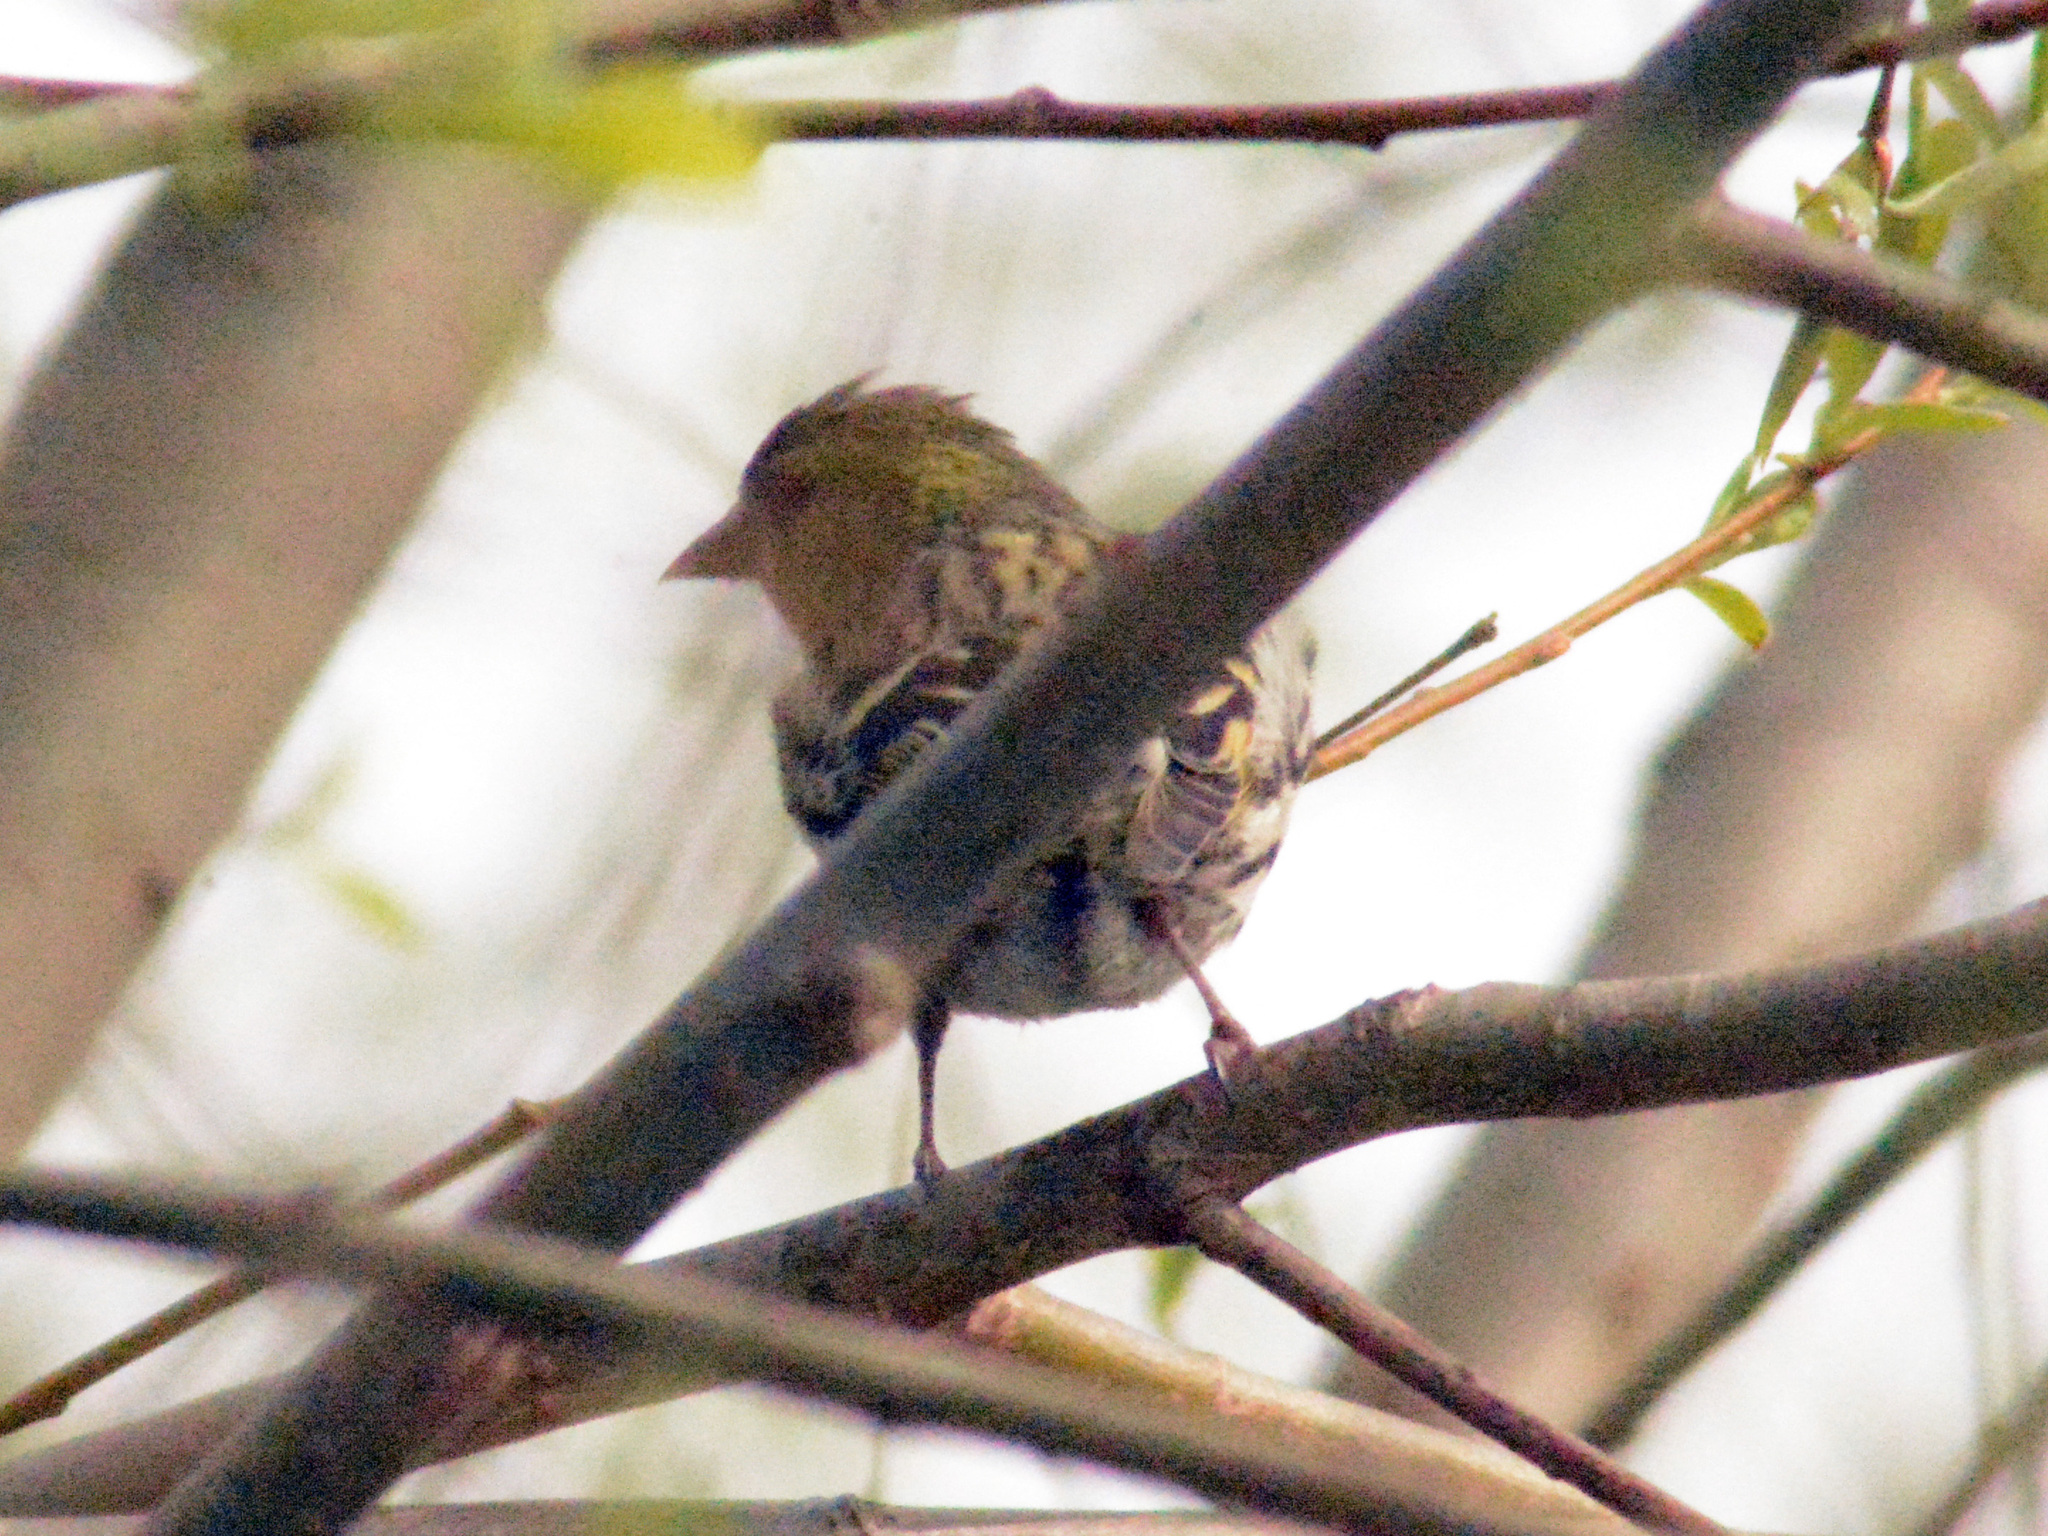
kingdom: Animalia
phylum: Chordata
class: Aves
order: Passeriformes
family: Fringillidae
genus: Spinus
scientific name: Spinus spinus
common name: Eurasian siskin
